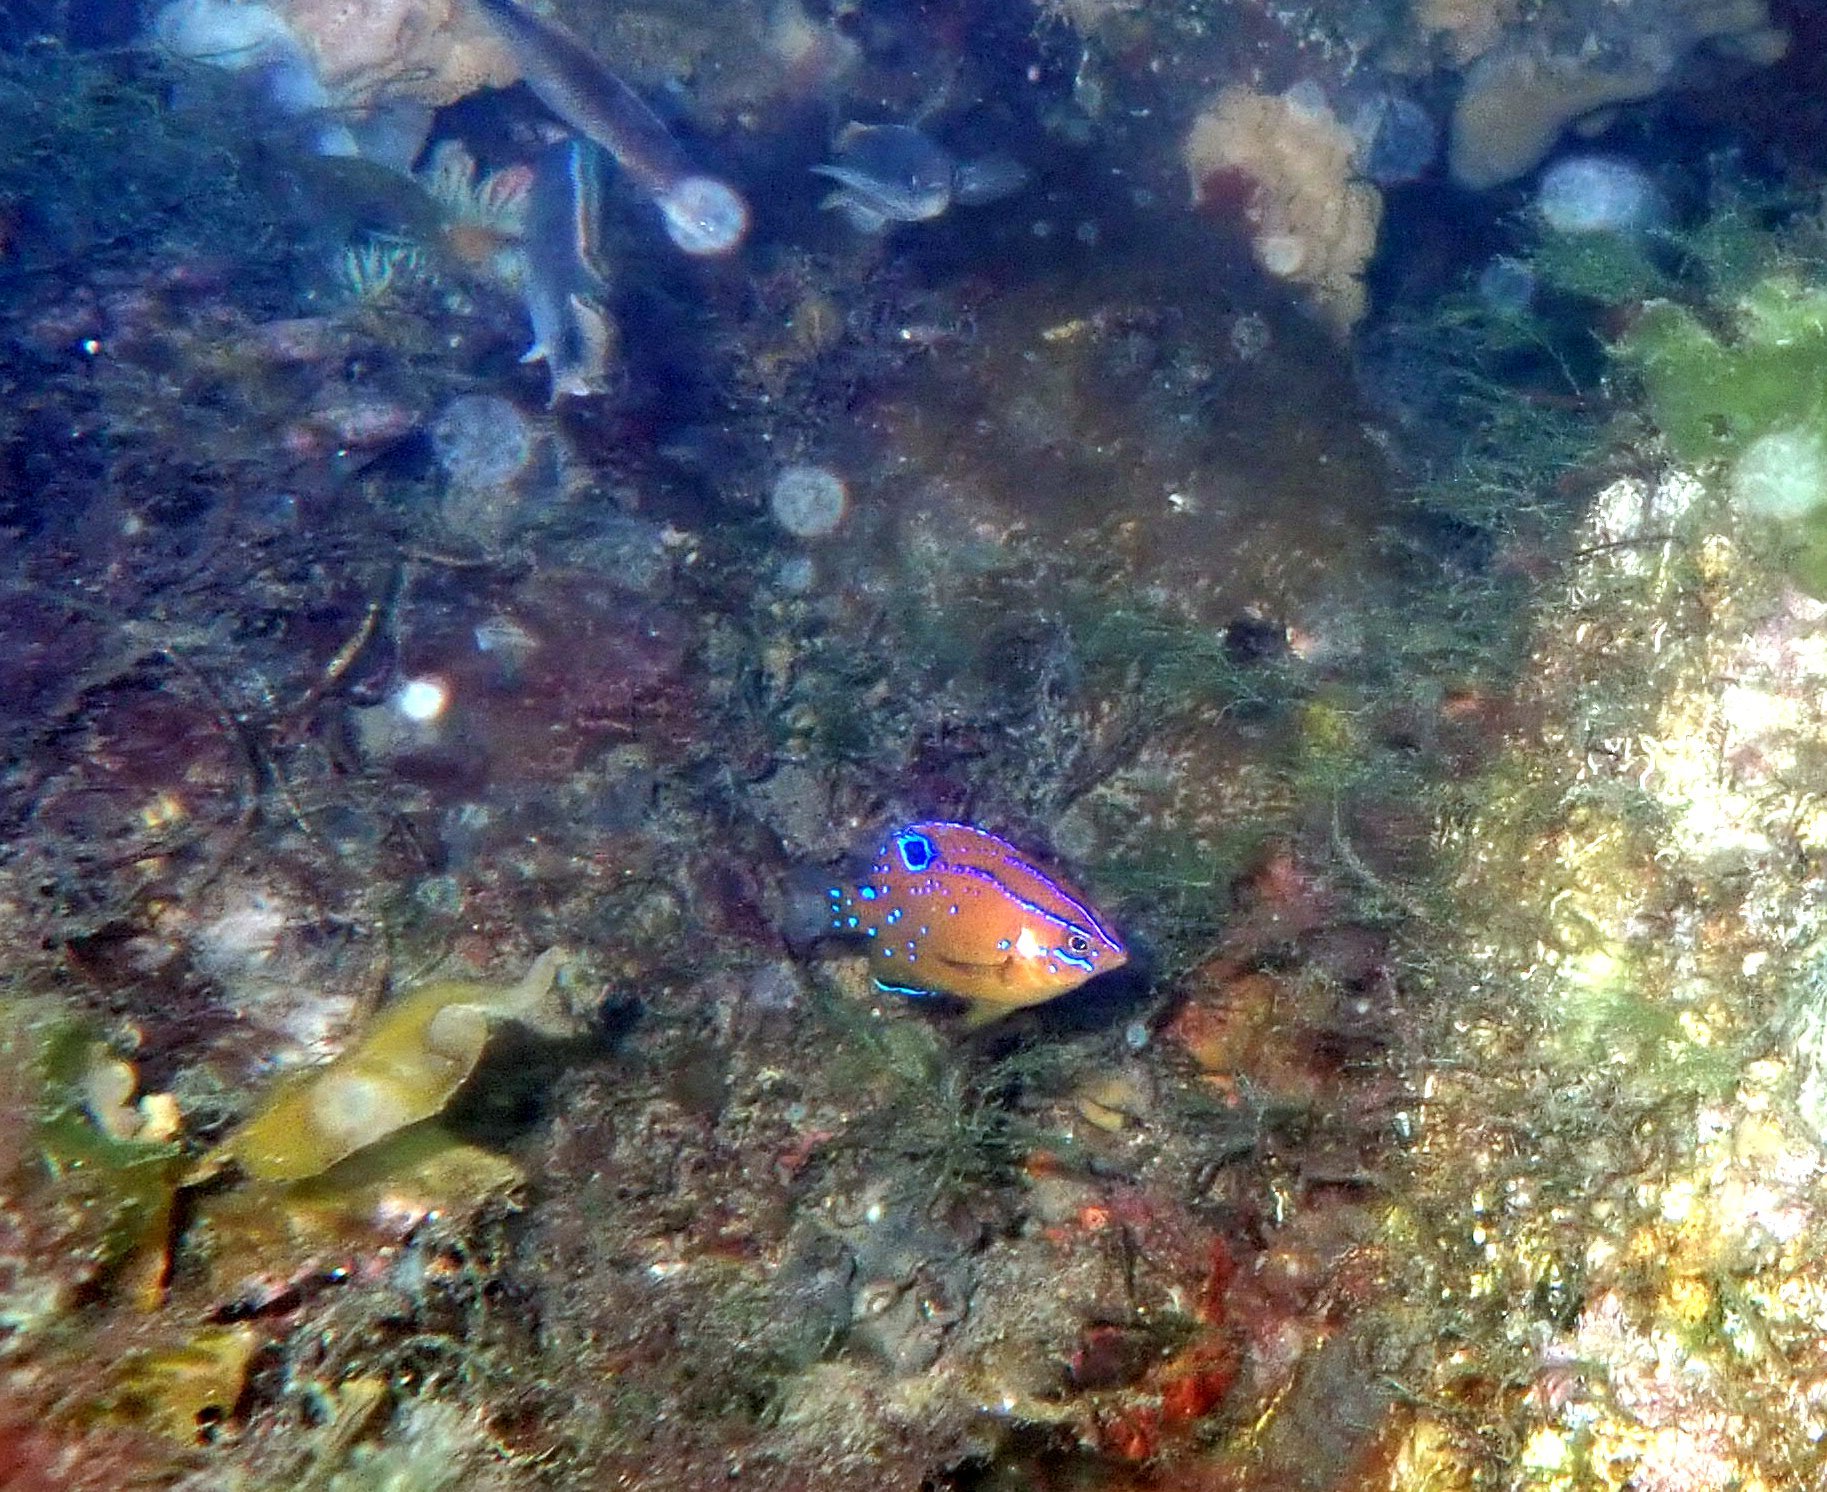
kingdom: Animalia
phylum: Chordata
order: Perciformes
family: Pomacentridae
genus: Parma
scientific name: Parma microlepis
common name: White-ear
